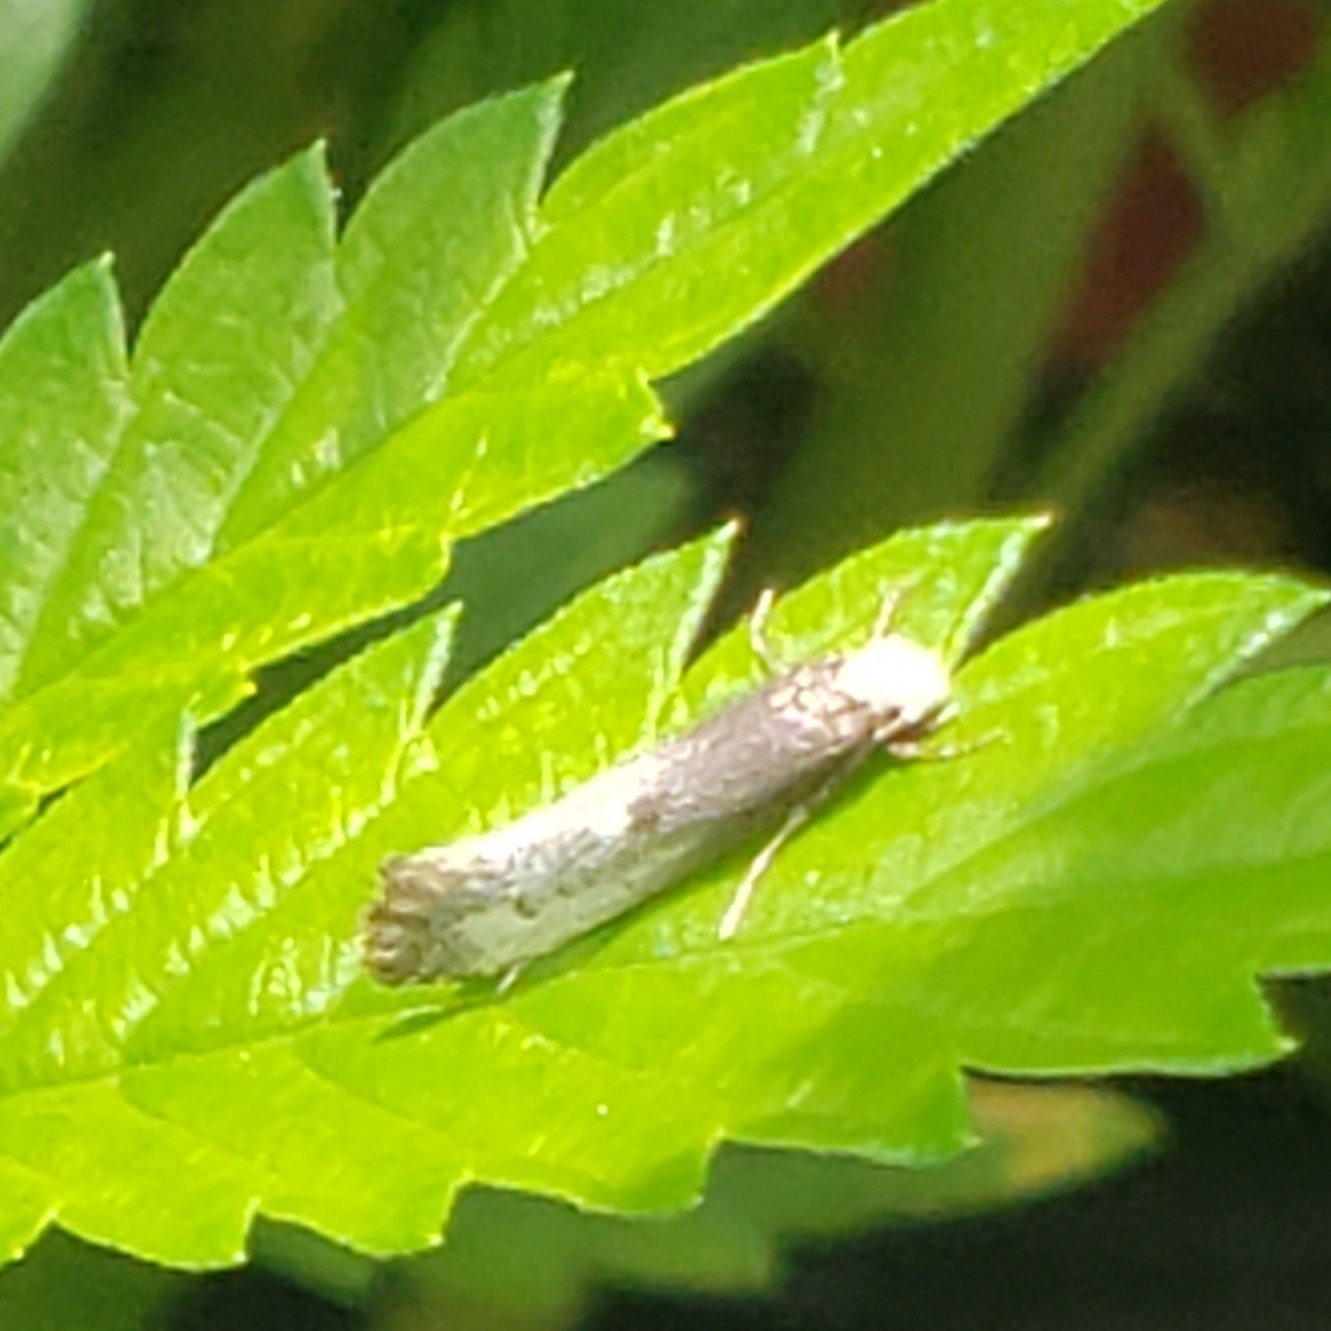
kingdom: Animalia
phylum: Arthropoda
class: Insecta
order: Lepidoptera
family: Tineidae
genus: Tinea
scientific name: Tinea occidentella
